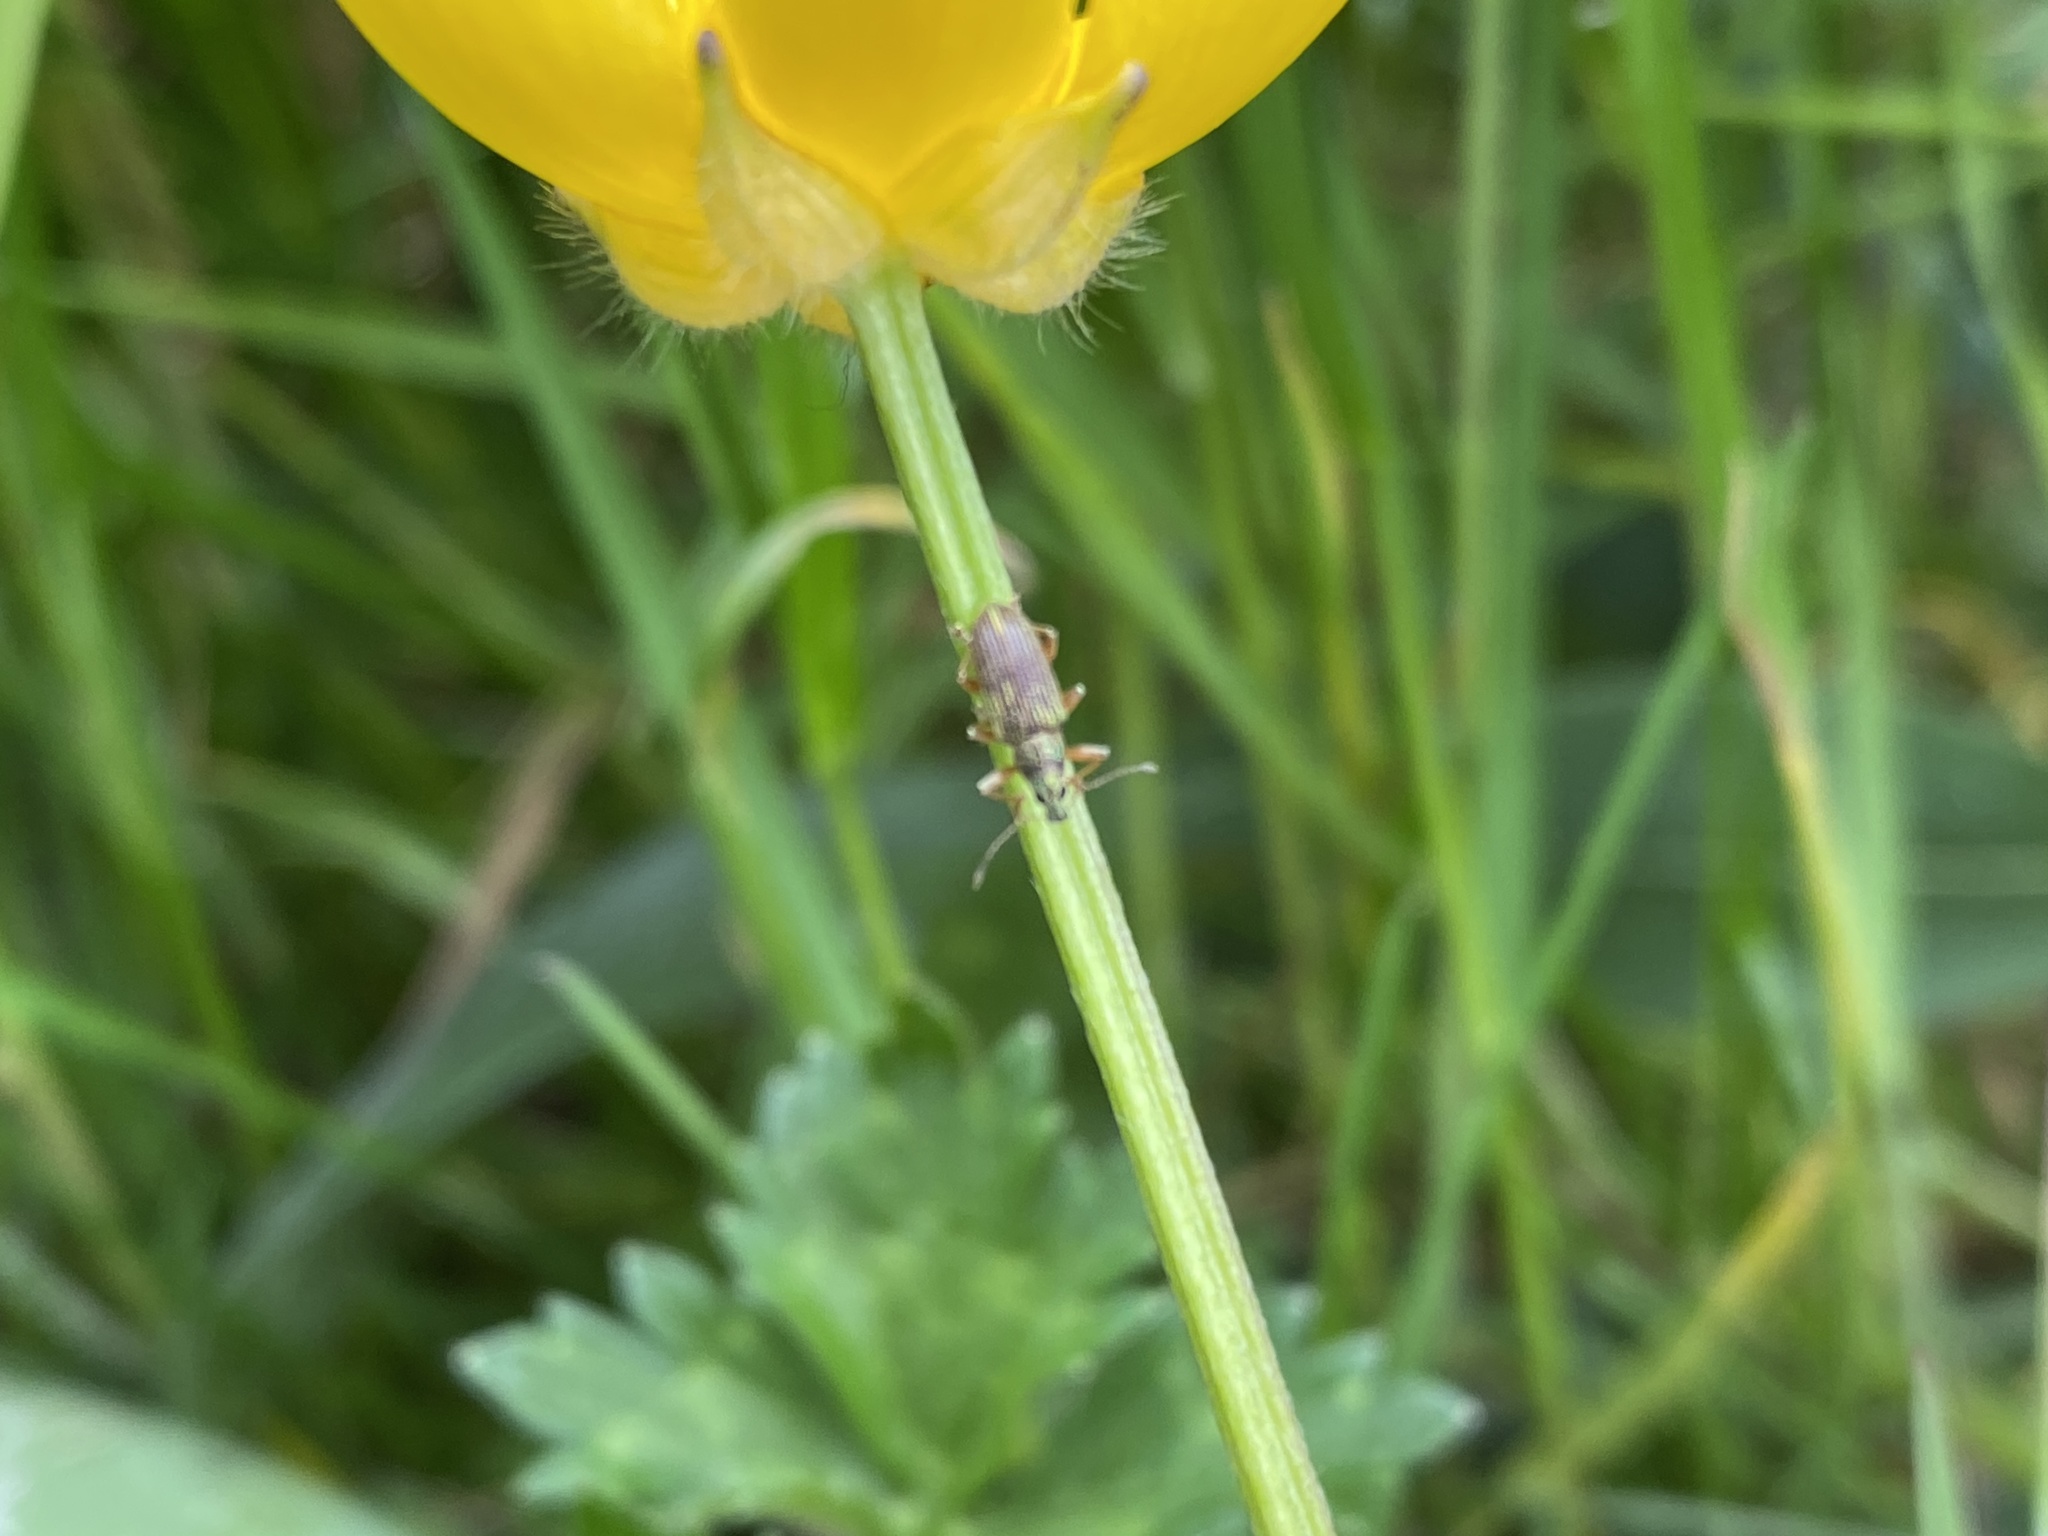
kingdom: Animalia
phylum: Arthropoda
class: Insecta
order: Coleoptera
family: Curculionidae
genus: Polydrusus
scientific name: Polydrusus formosus
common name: Weevil
